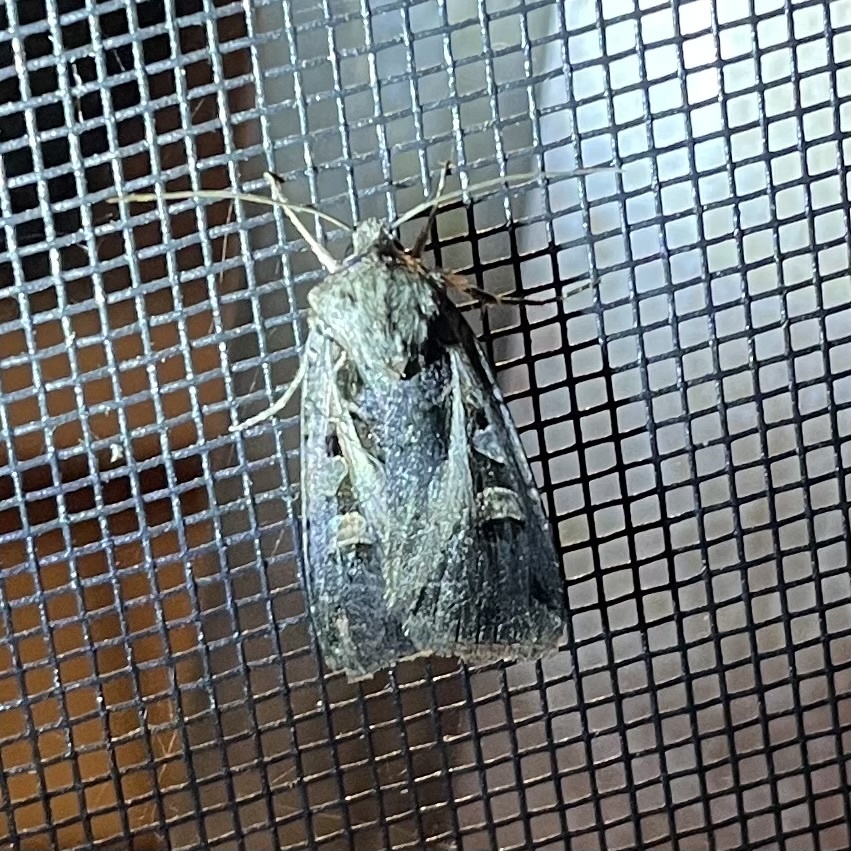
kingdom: Animalia
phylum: Arthropoda
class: Insecta
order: Lepidoptera
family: Noctuidae
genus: Feltia
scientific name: Feltia herilis
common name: Master's dart
